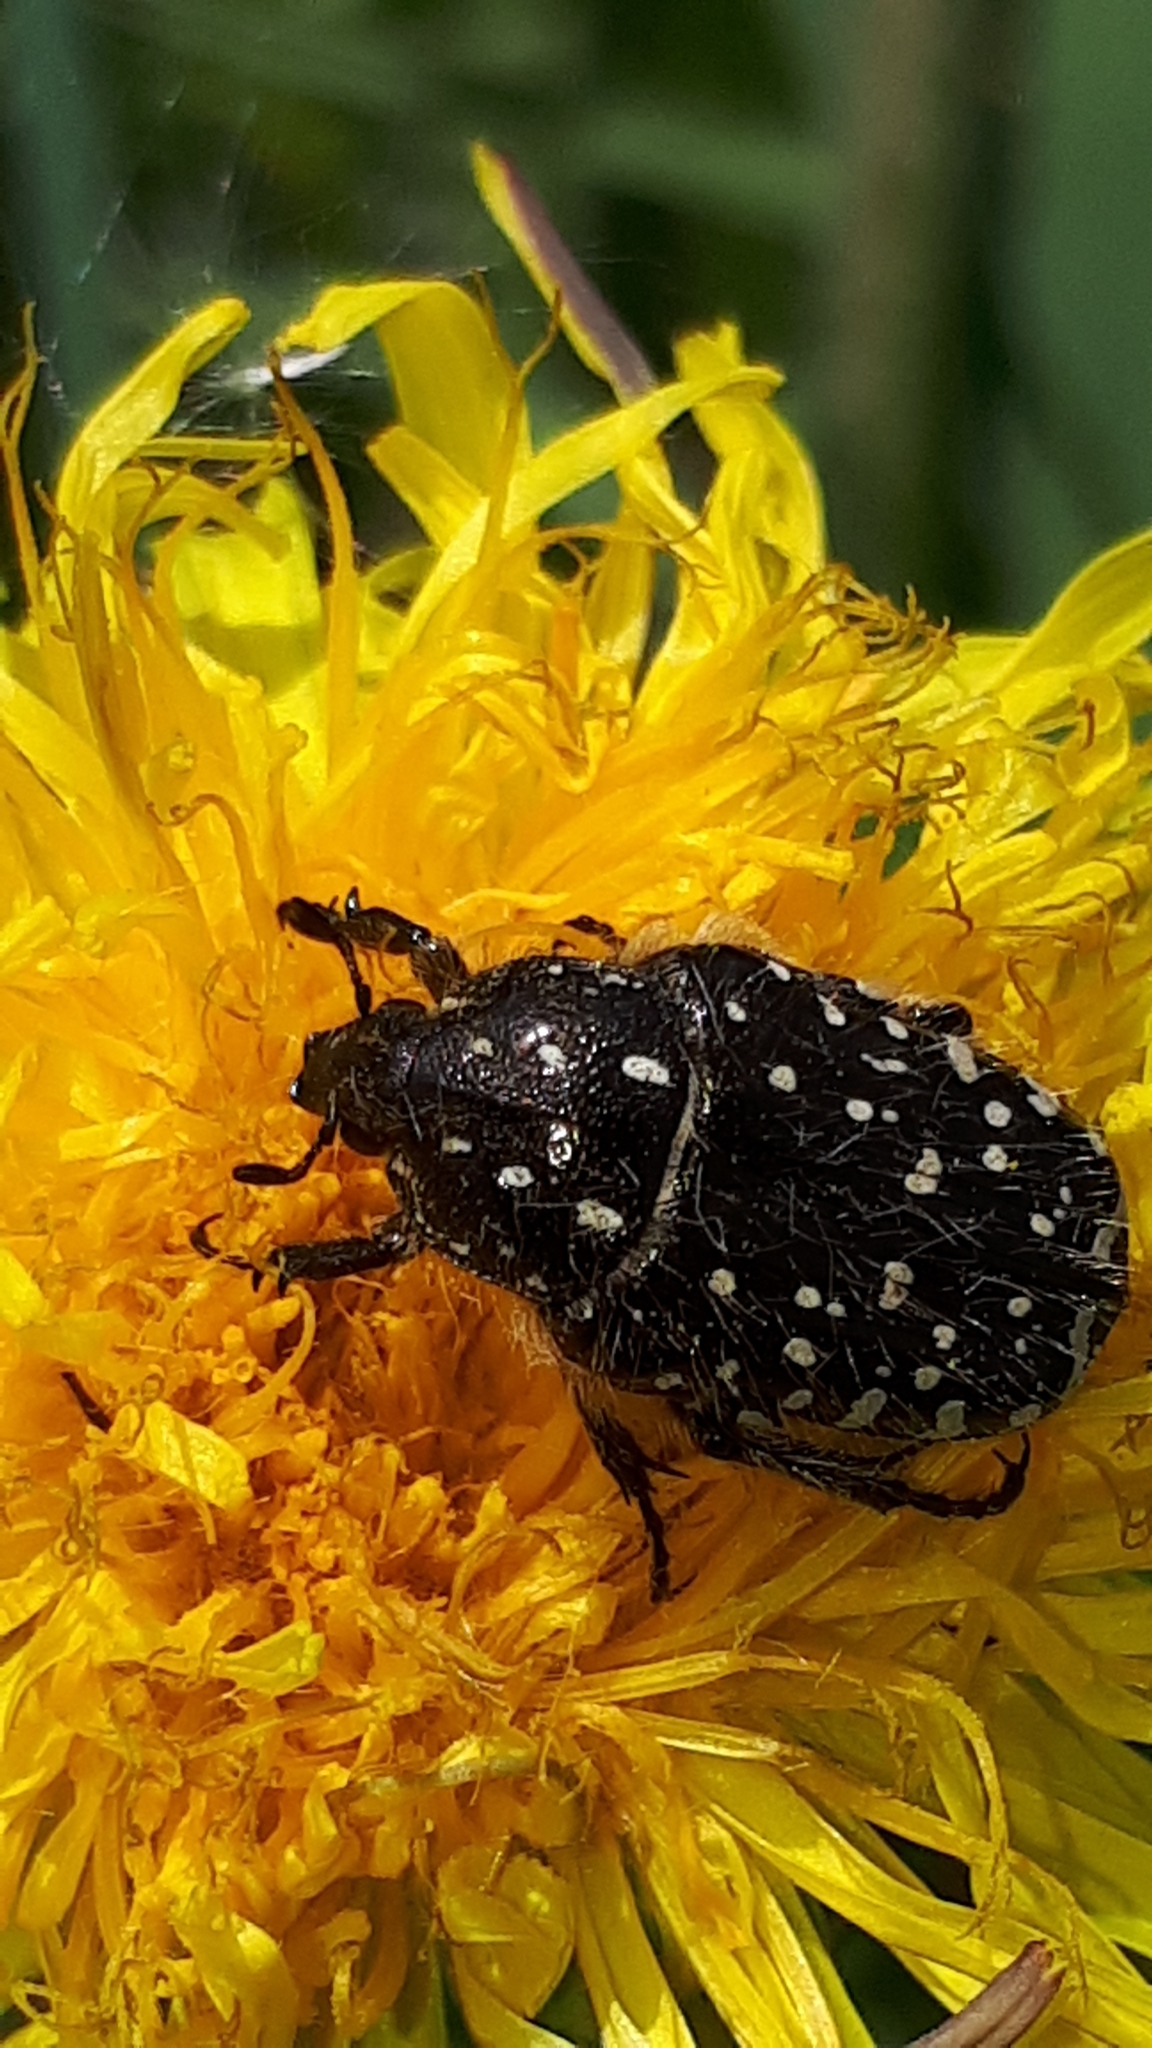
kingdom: Animalia
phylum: Arthropoda
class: Insecta
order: Coleoptera
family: Scarabaeidae
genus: Oxythyrea
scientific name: Oxythyrea funesta
